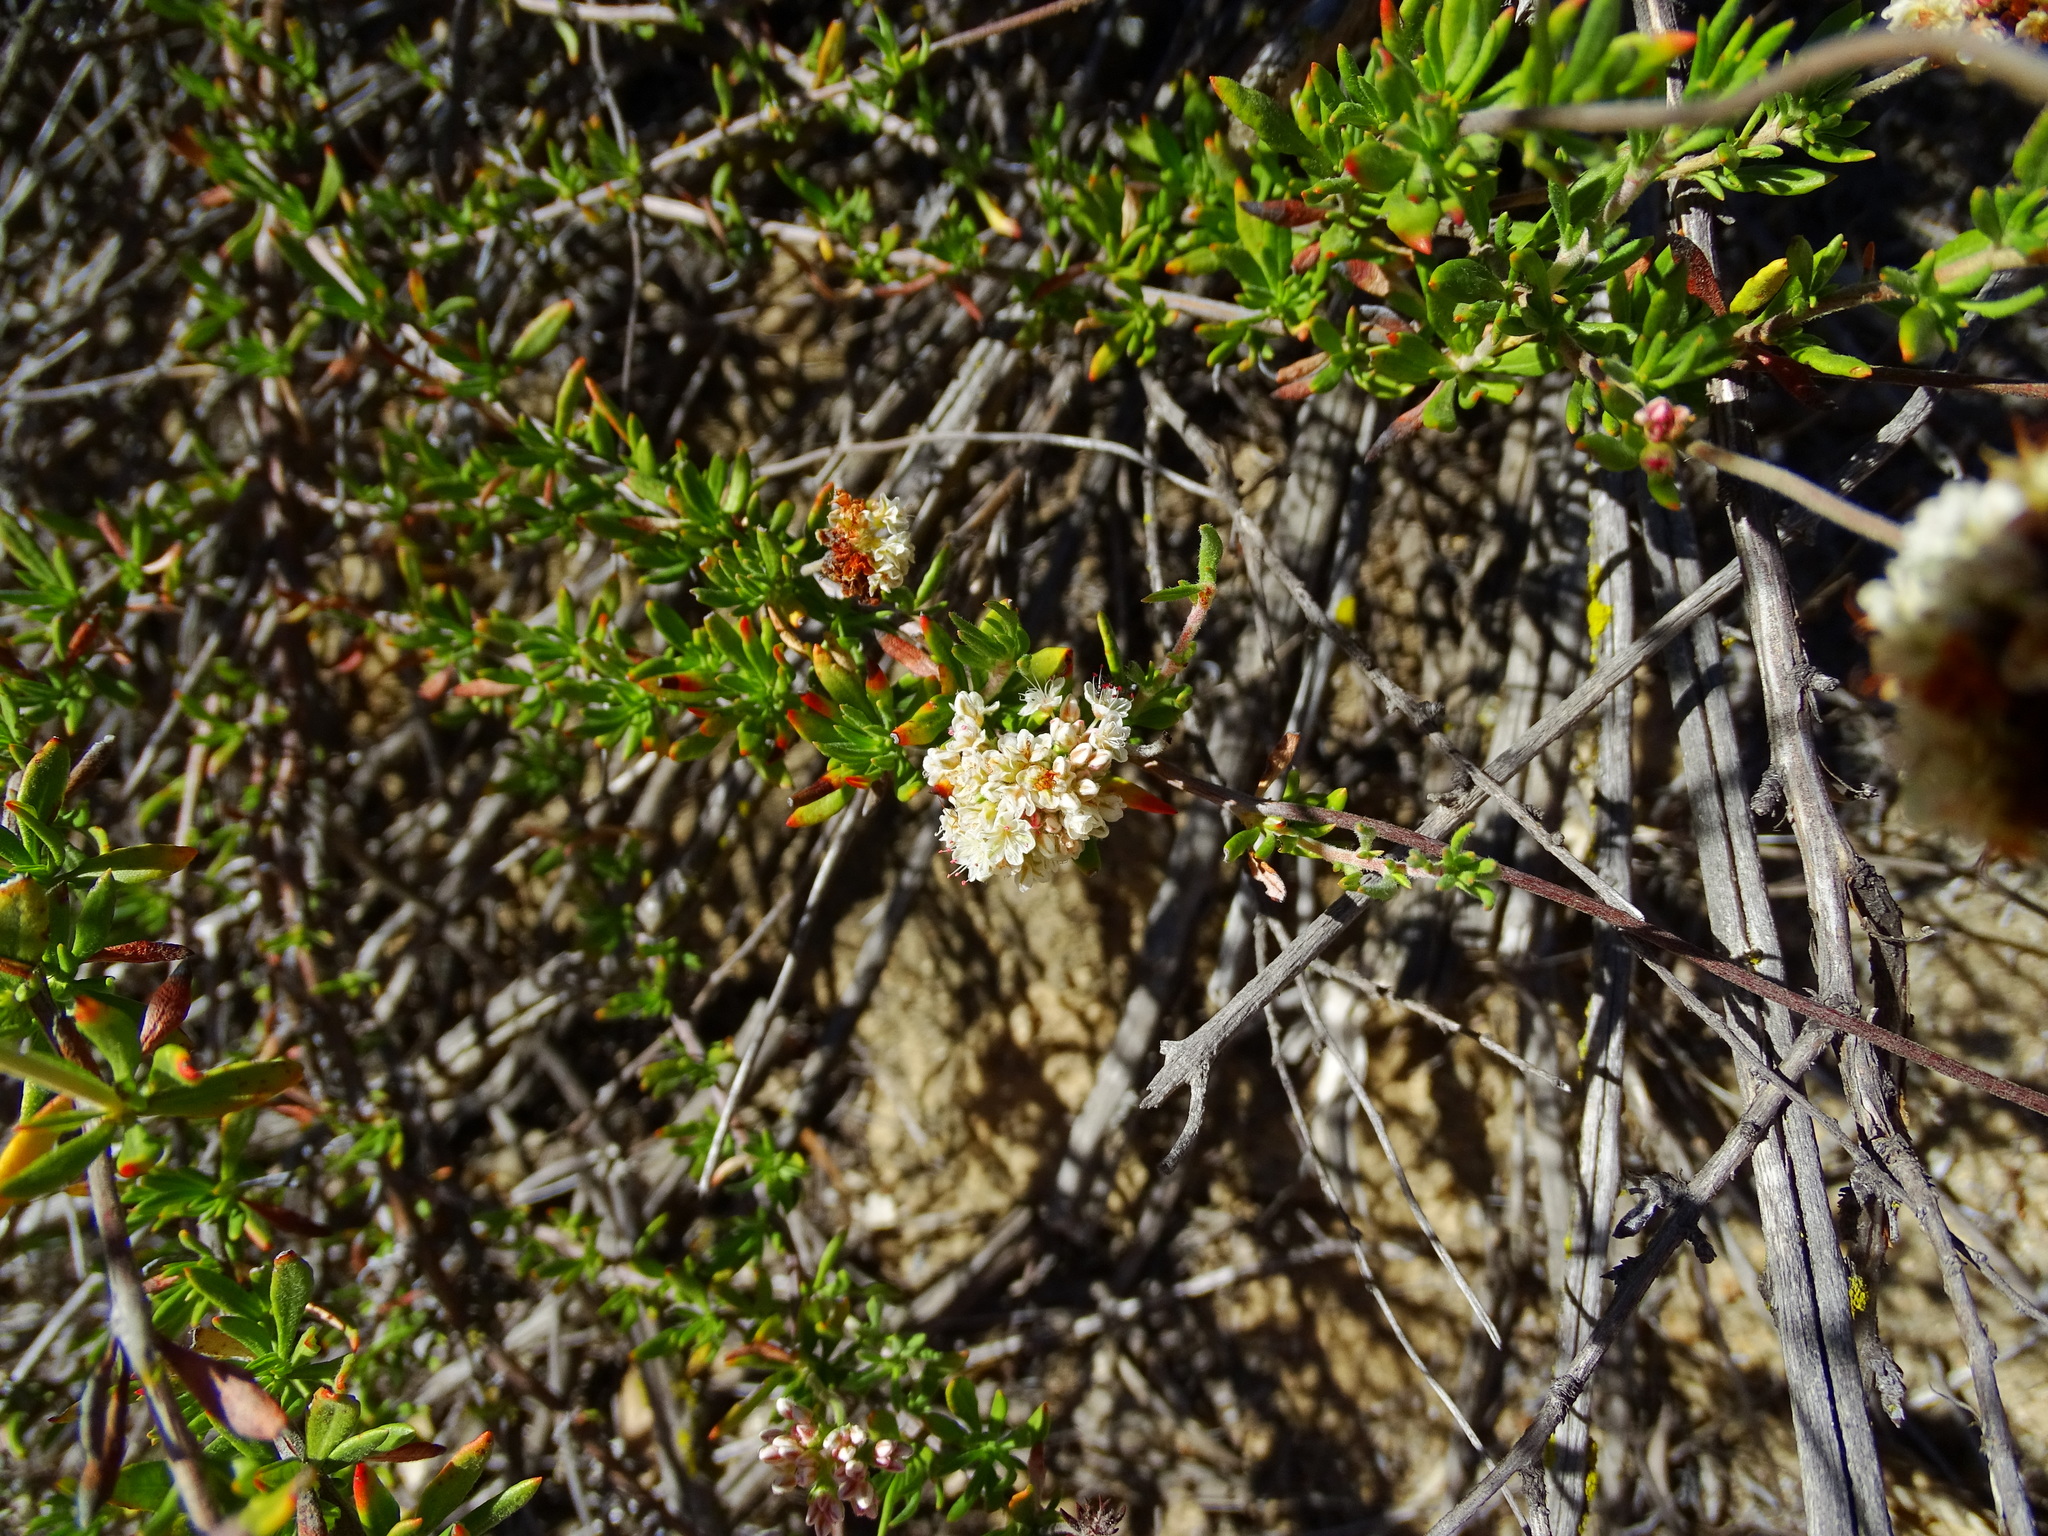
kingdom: Plantae
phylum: Tracheophyta
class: Magnoliopsida
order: Caryophyllales
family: Polygonaceae
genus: Eriogonum
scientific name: Eriogonum fasciculatum
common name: California wild buckwheat
